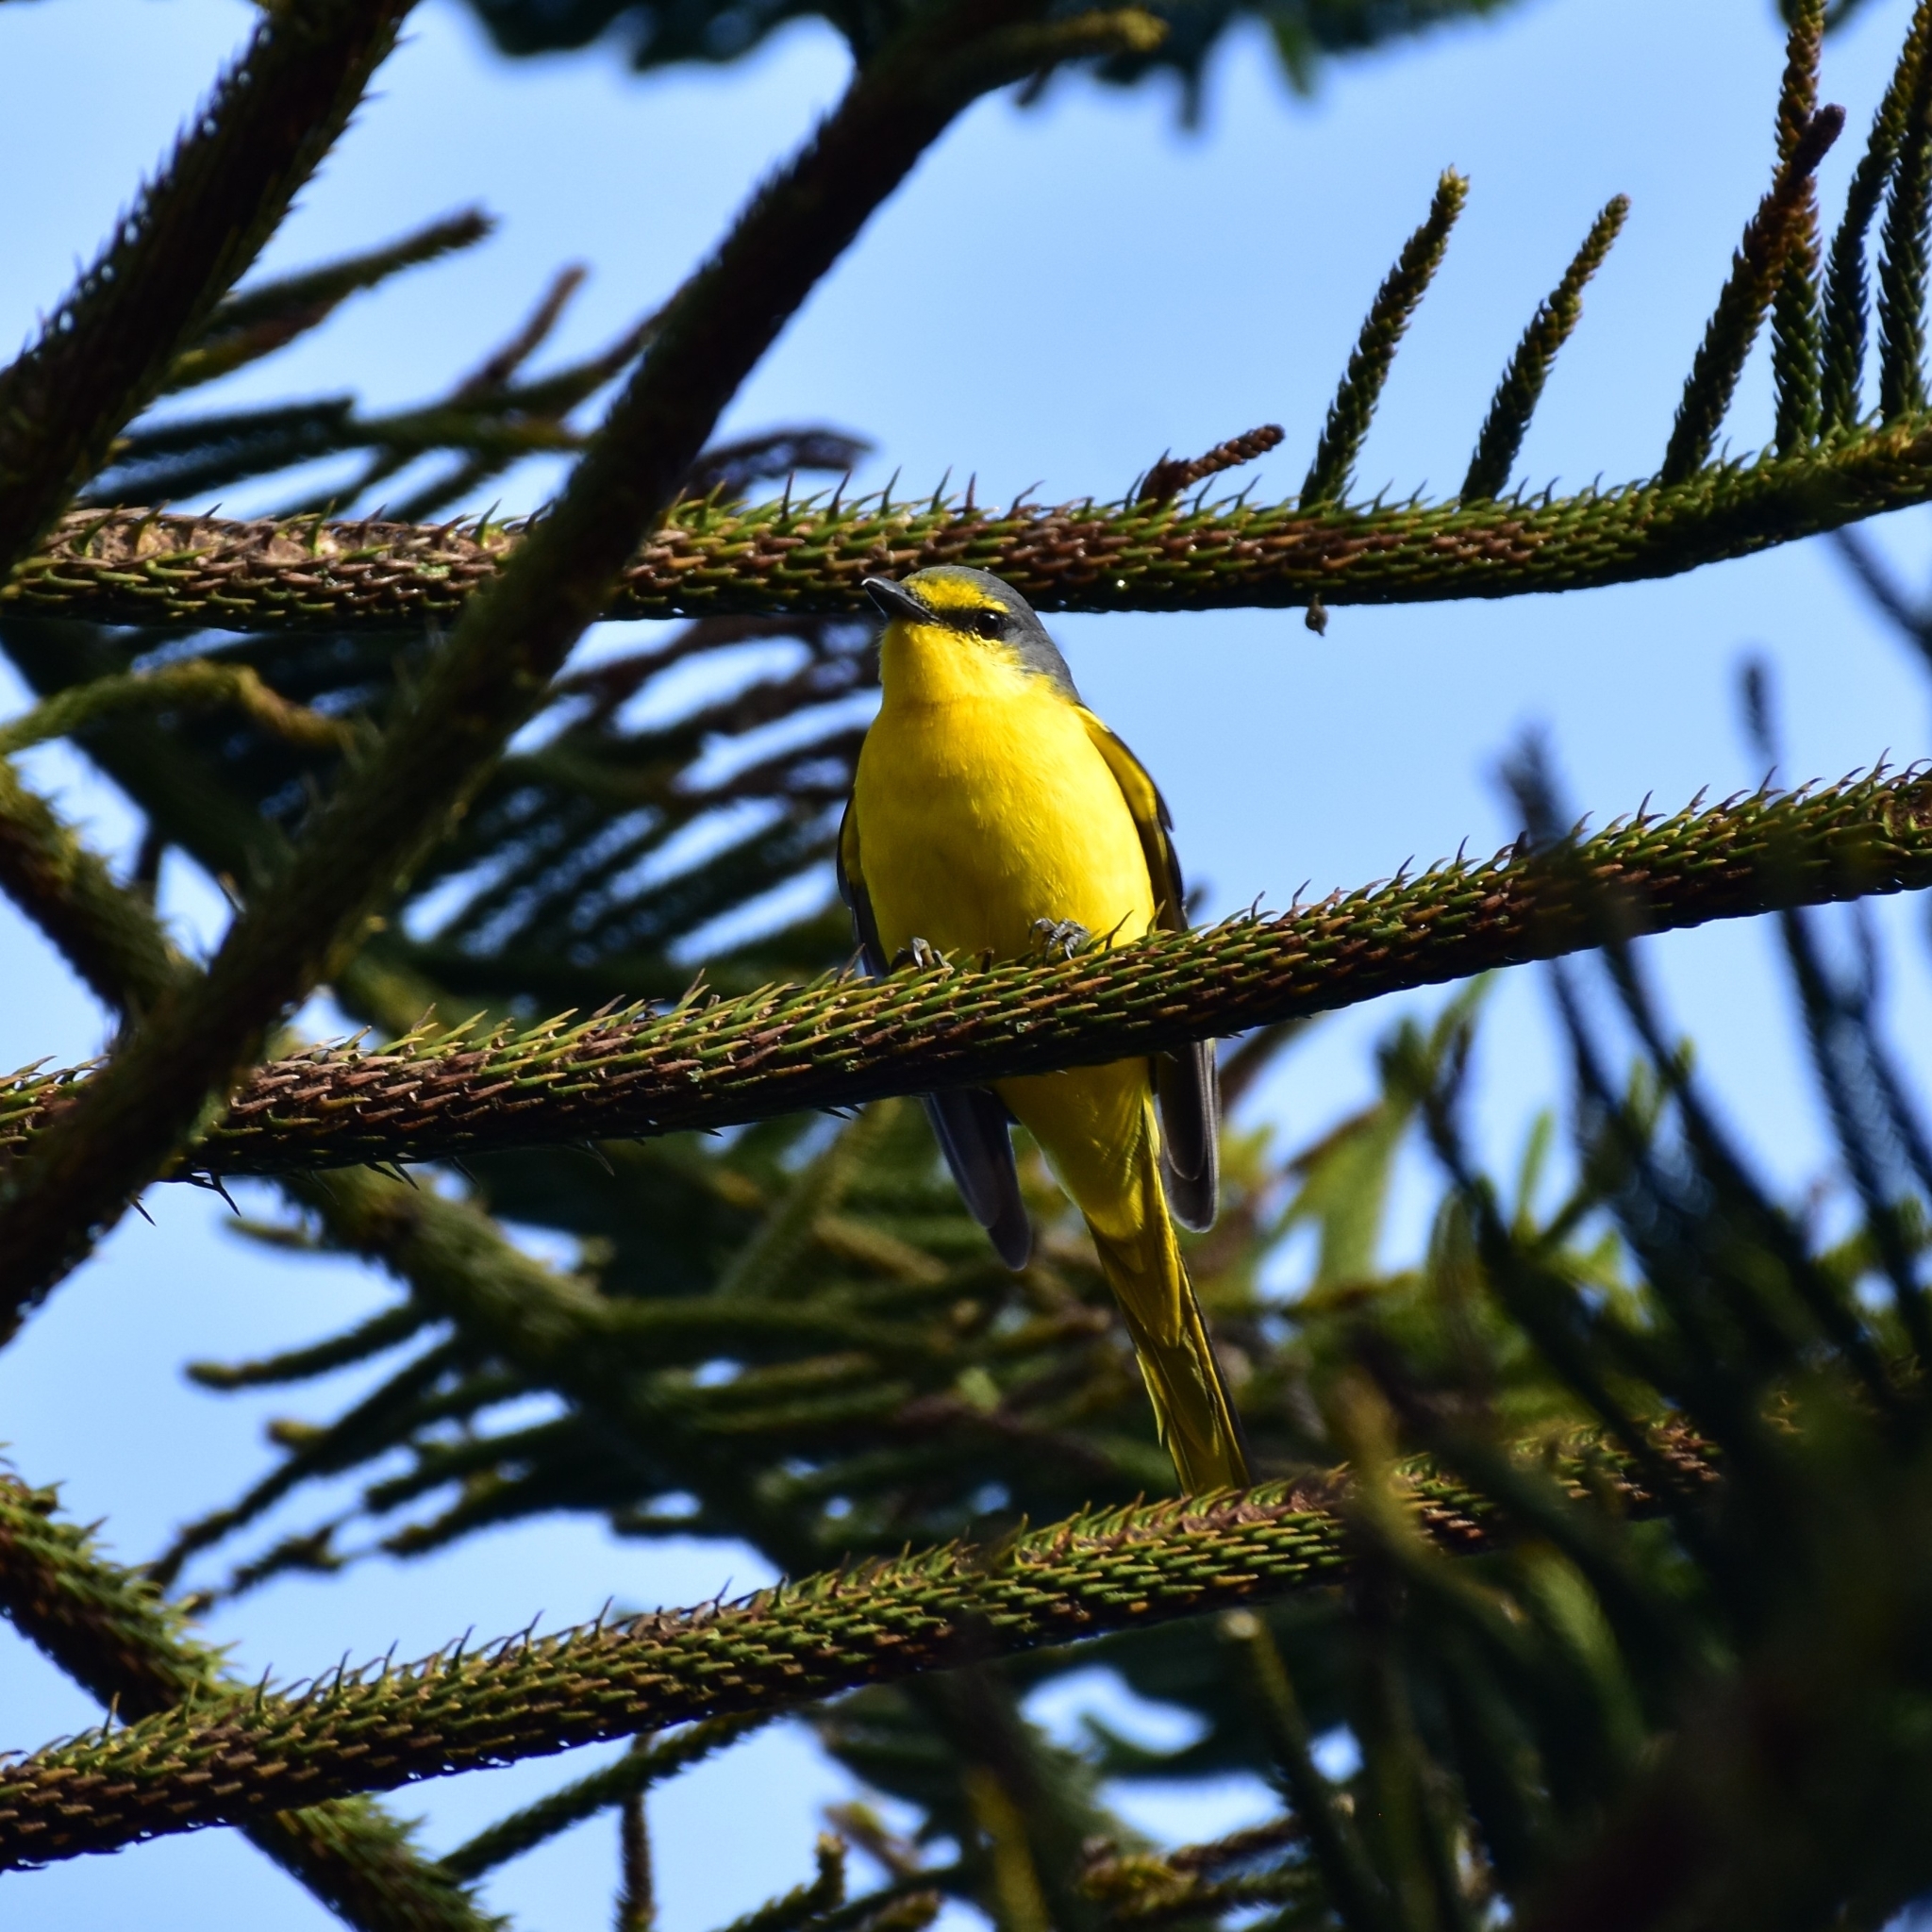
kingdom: Animalia
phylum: Chordata
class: Aves
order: Passeriformes
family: Campephagidae
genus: Pericrocotus
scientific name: Pericrocotus flammeus
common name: Orange minivet
